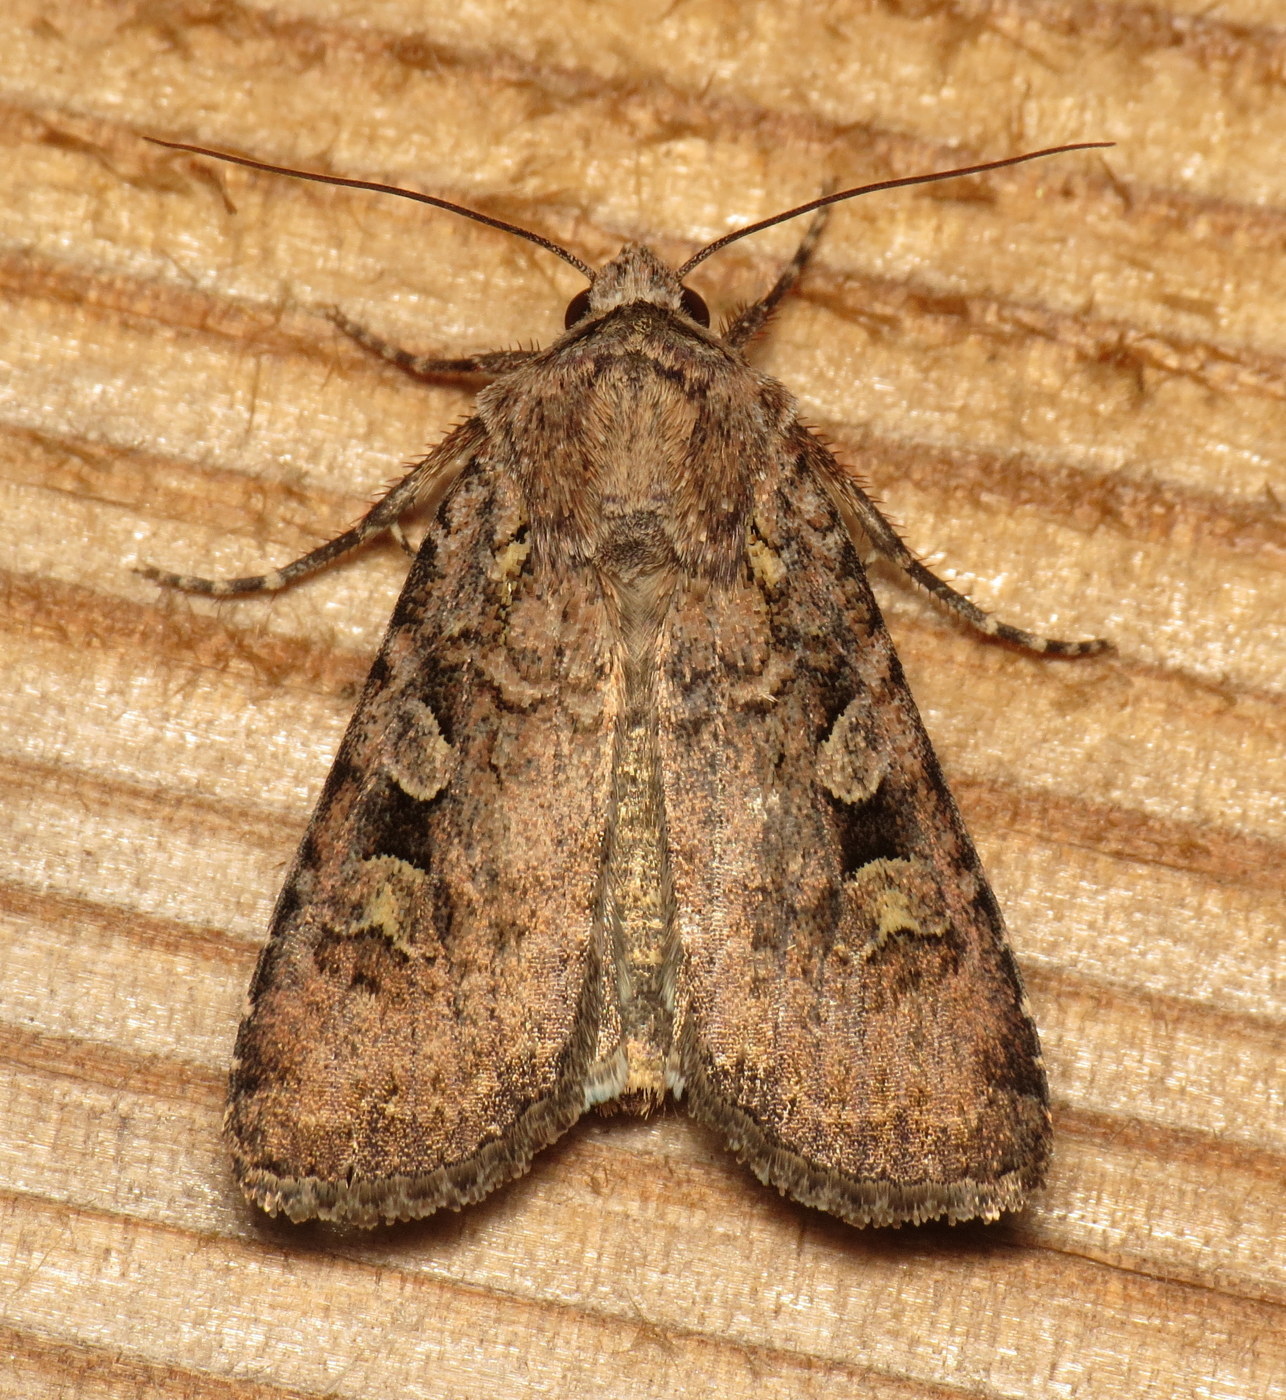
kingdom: Animalia
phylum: Arthropoda
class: Insecta
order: Lepidoptera
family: Noctuidae
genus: Euxoa
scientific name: Euxoa tessellata
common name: Striped cutworm
